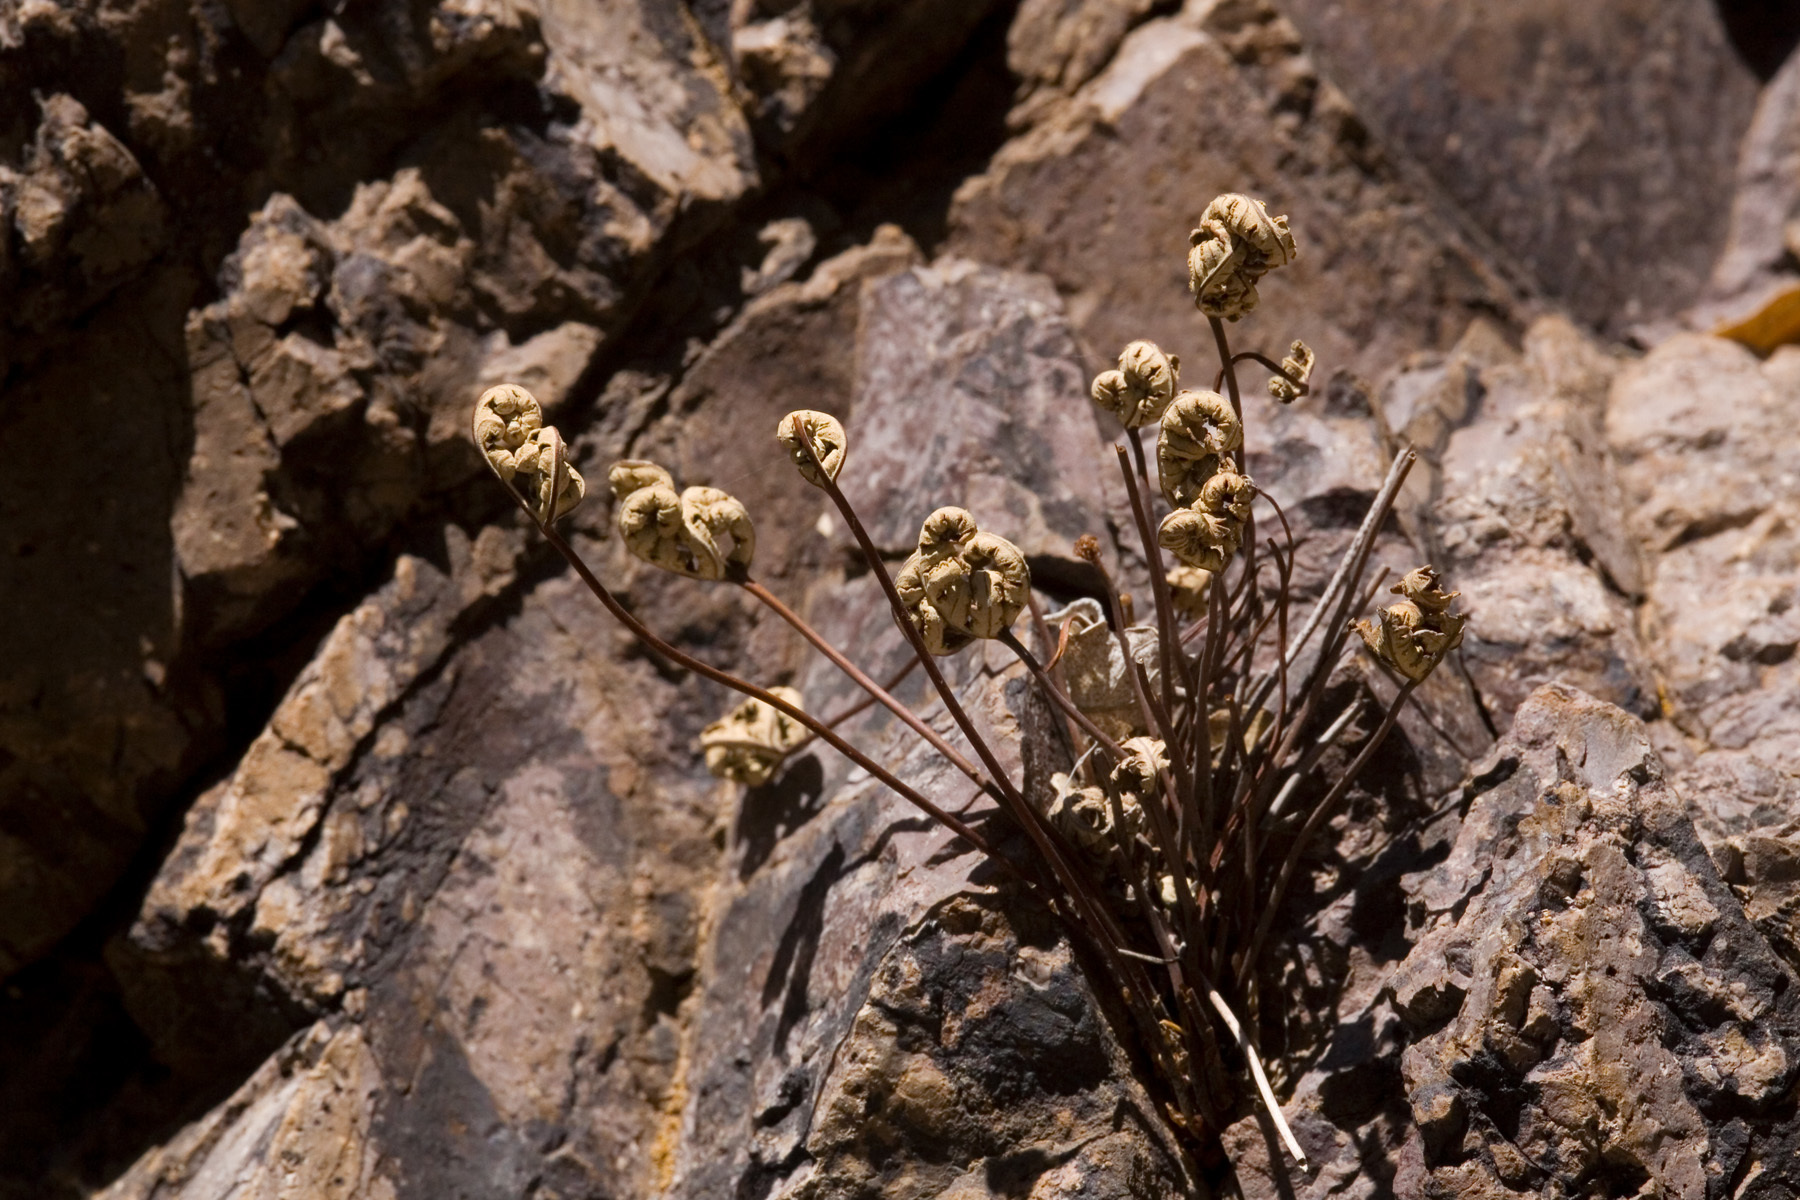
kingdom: Plantae
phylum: Tracheophyta
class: Polypodiopsida
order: Polypodiales
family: Pteridaceae
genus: Notholaena
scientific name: Notholaena standleyi
